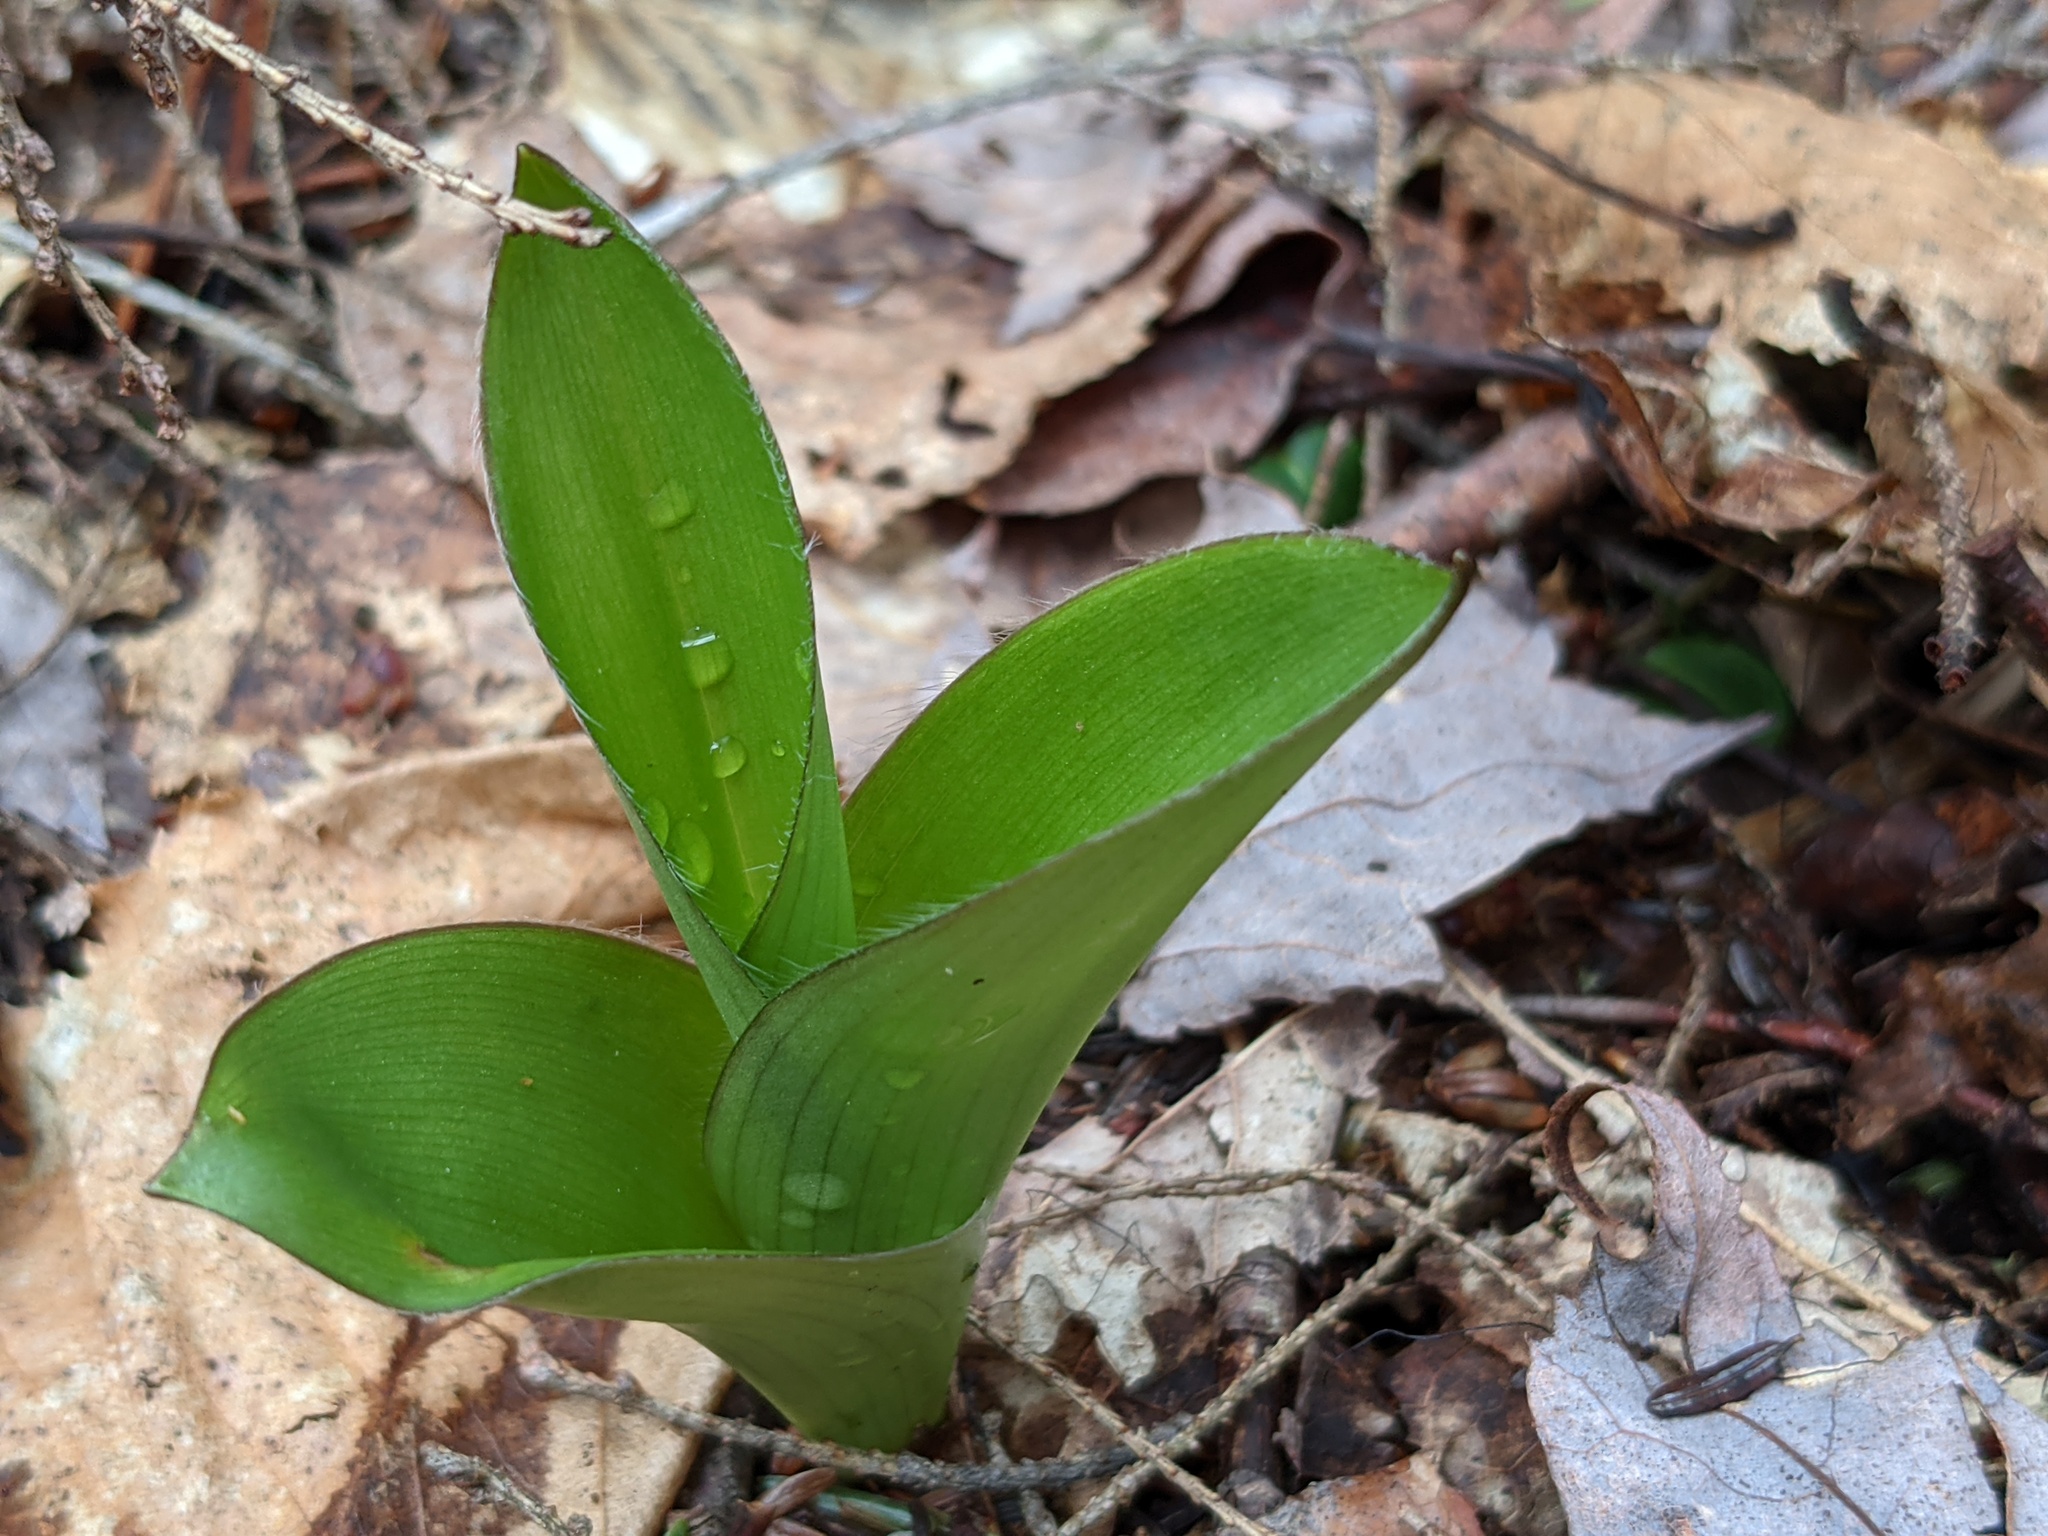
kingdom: Plantae
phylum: Tracheophyta
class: Liliopsida
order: Liliales
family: Liliaceae
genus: Clintonia
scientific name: Clintonia borealis
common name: Yellow clintonia
